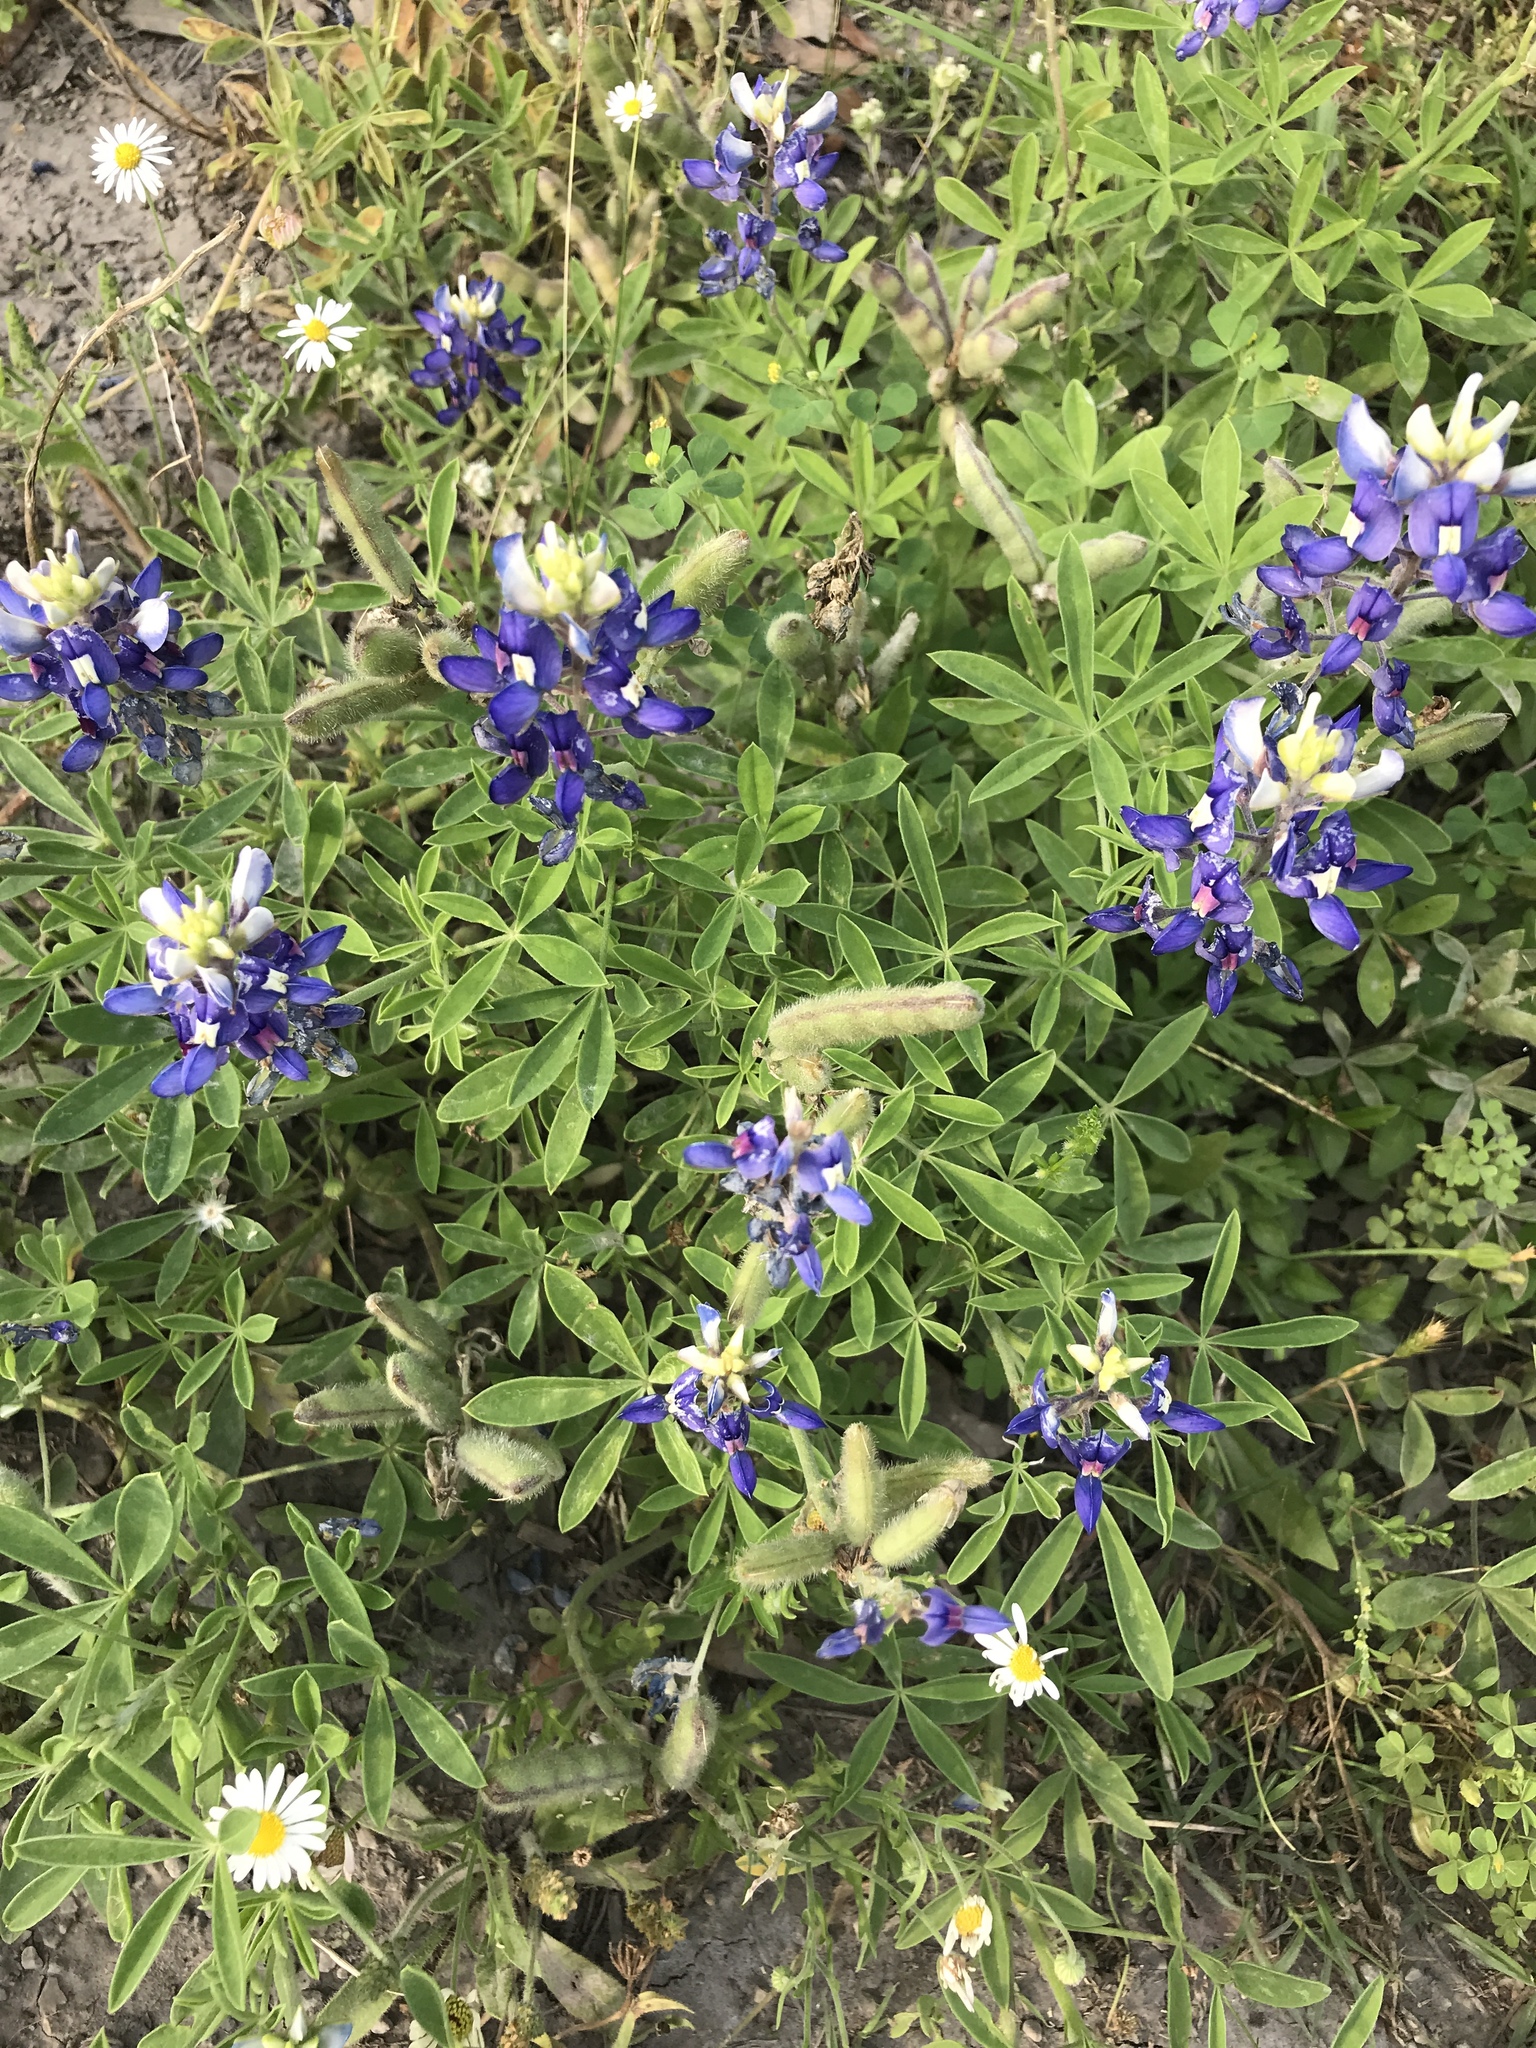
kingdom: Plantae
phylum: Tracheophyta
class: Magnoliopsida
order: Fabales
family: Fabaceae
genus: Lupinus
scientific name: Lupinus texensis
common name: Texas bluebonnet
